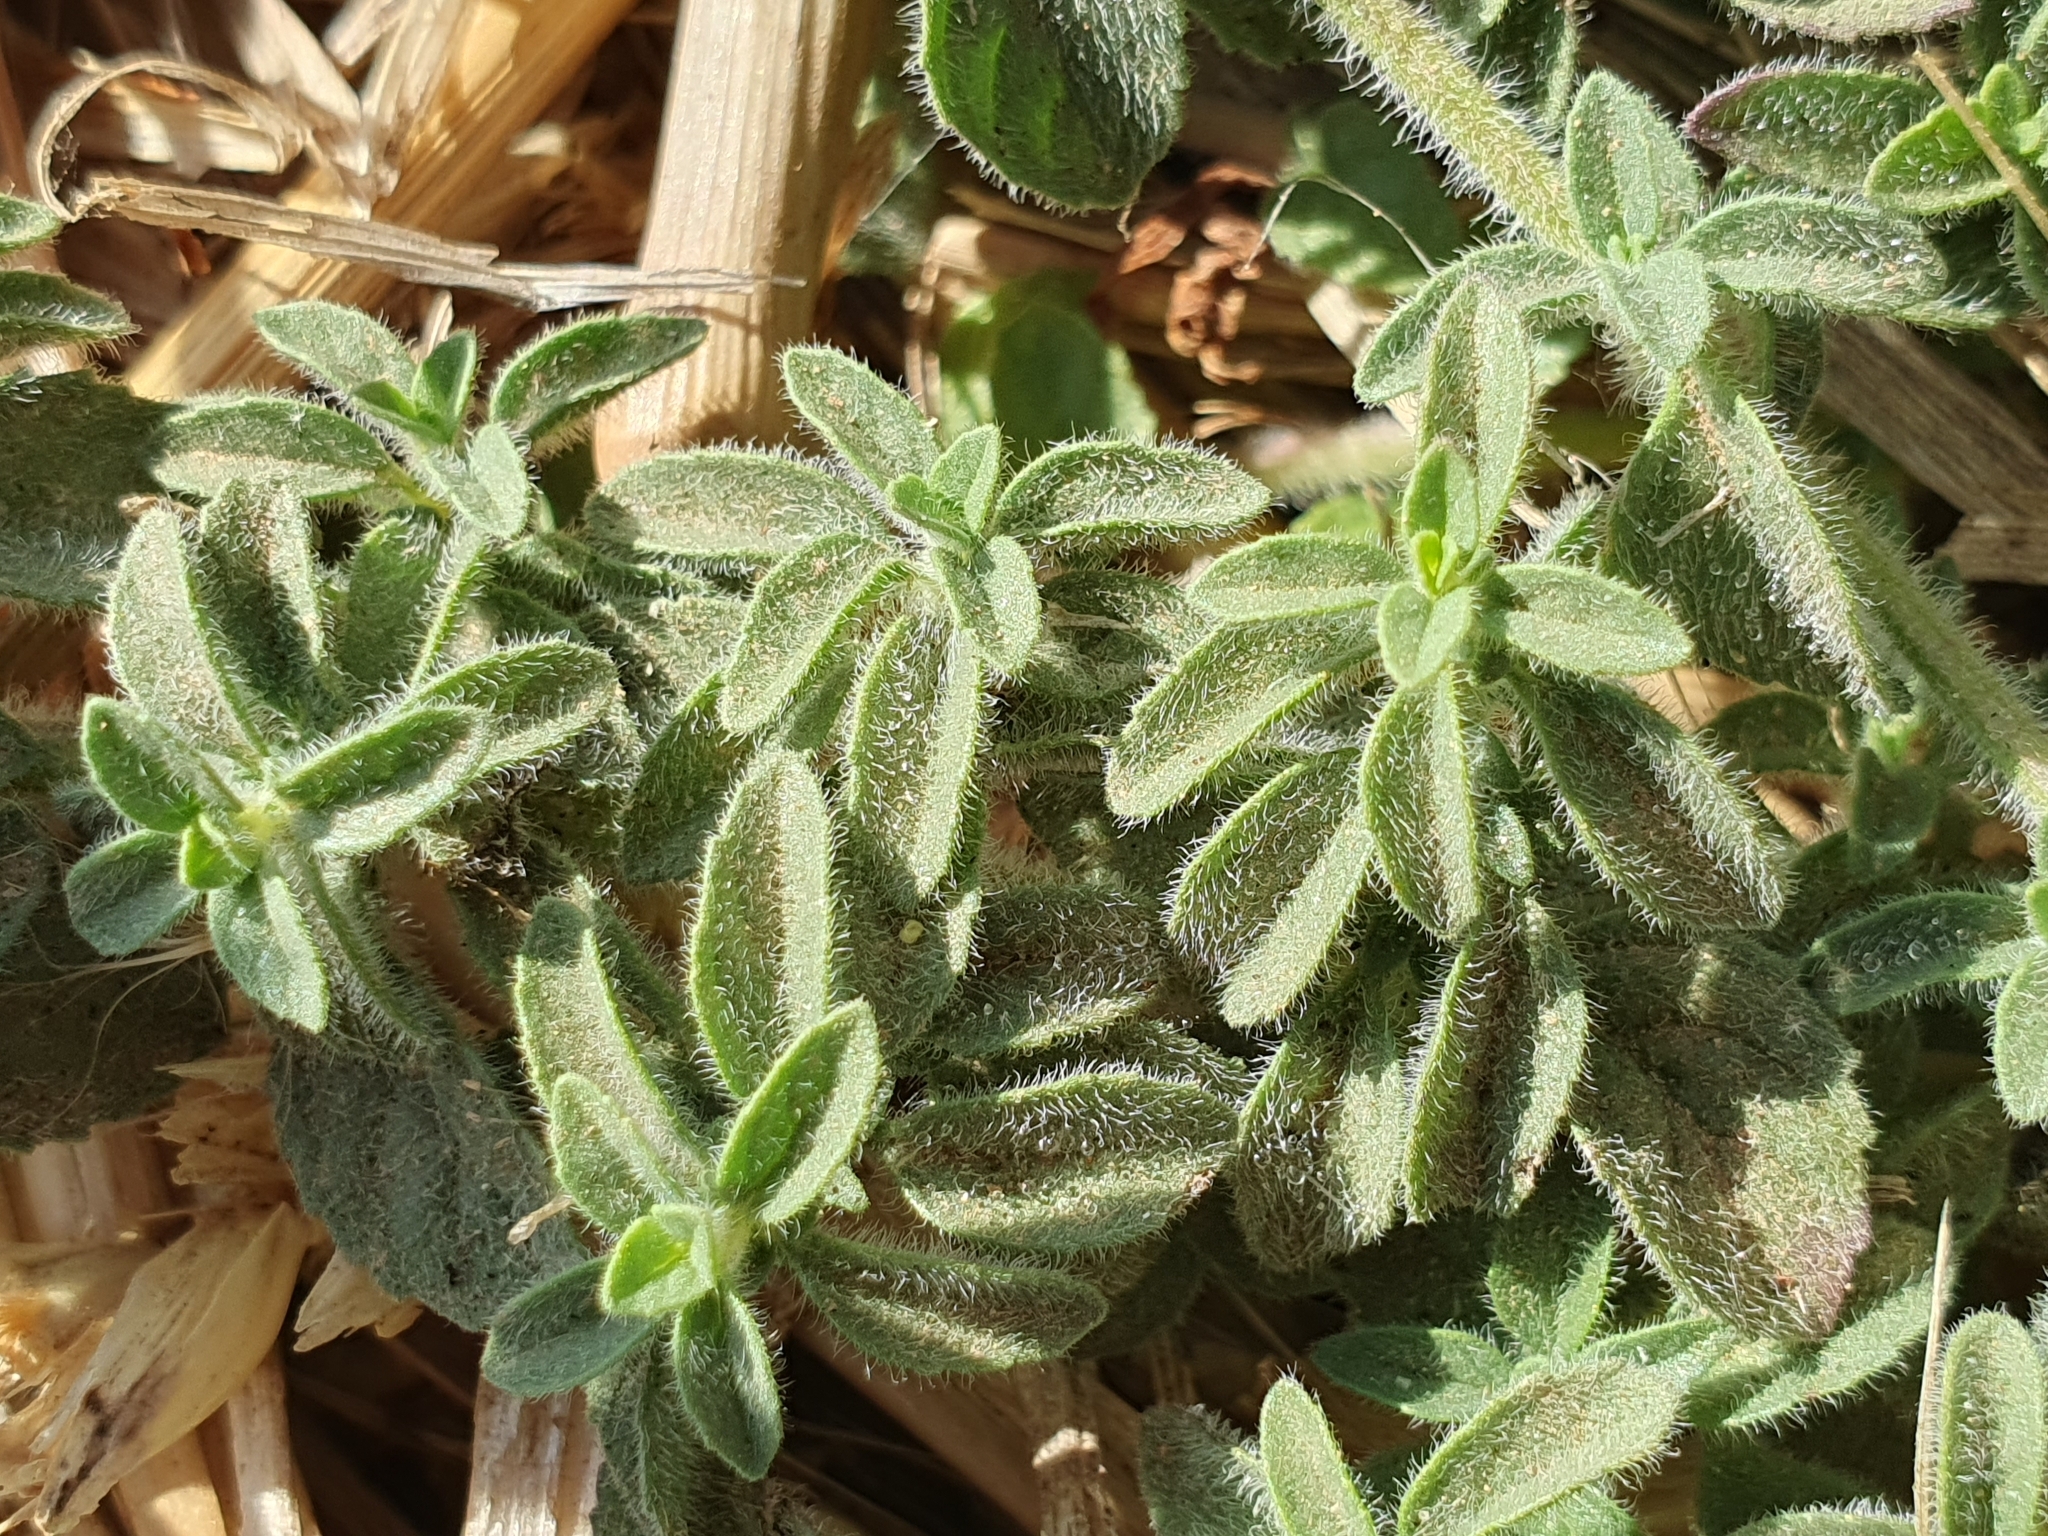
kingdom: Plantae
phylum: Tracheophyta
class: Magnoliopsida
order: Lamiales
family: Lamiaceae
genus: Mentha
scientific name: Mentha pulegium
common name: Pennyroyal
